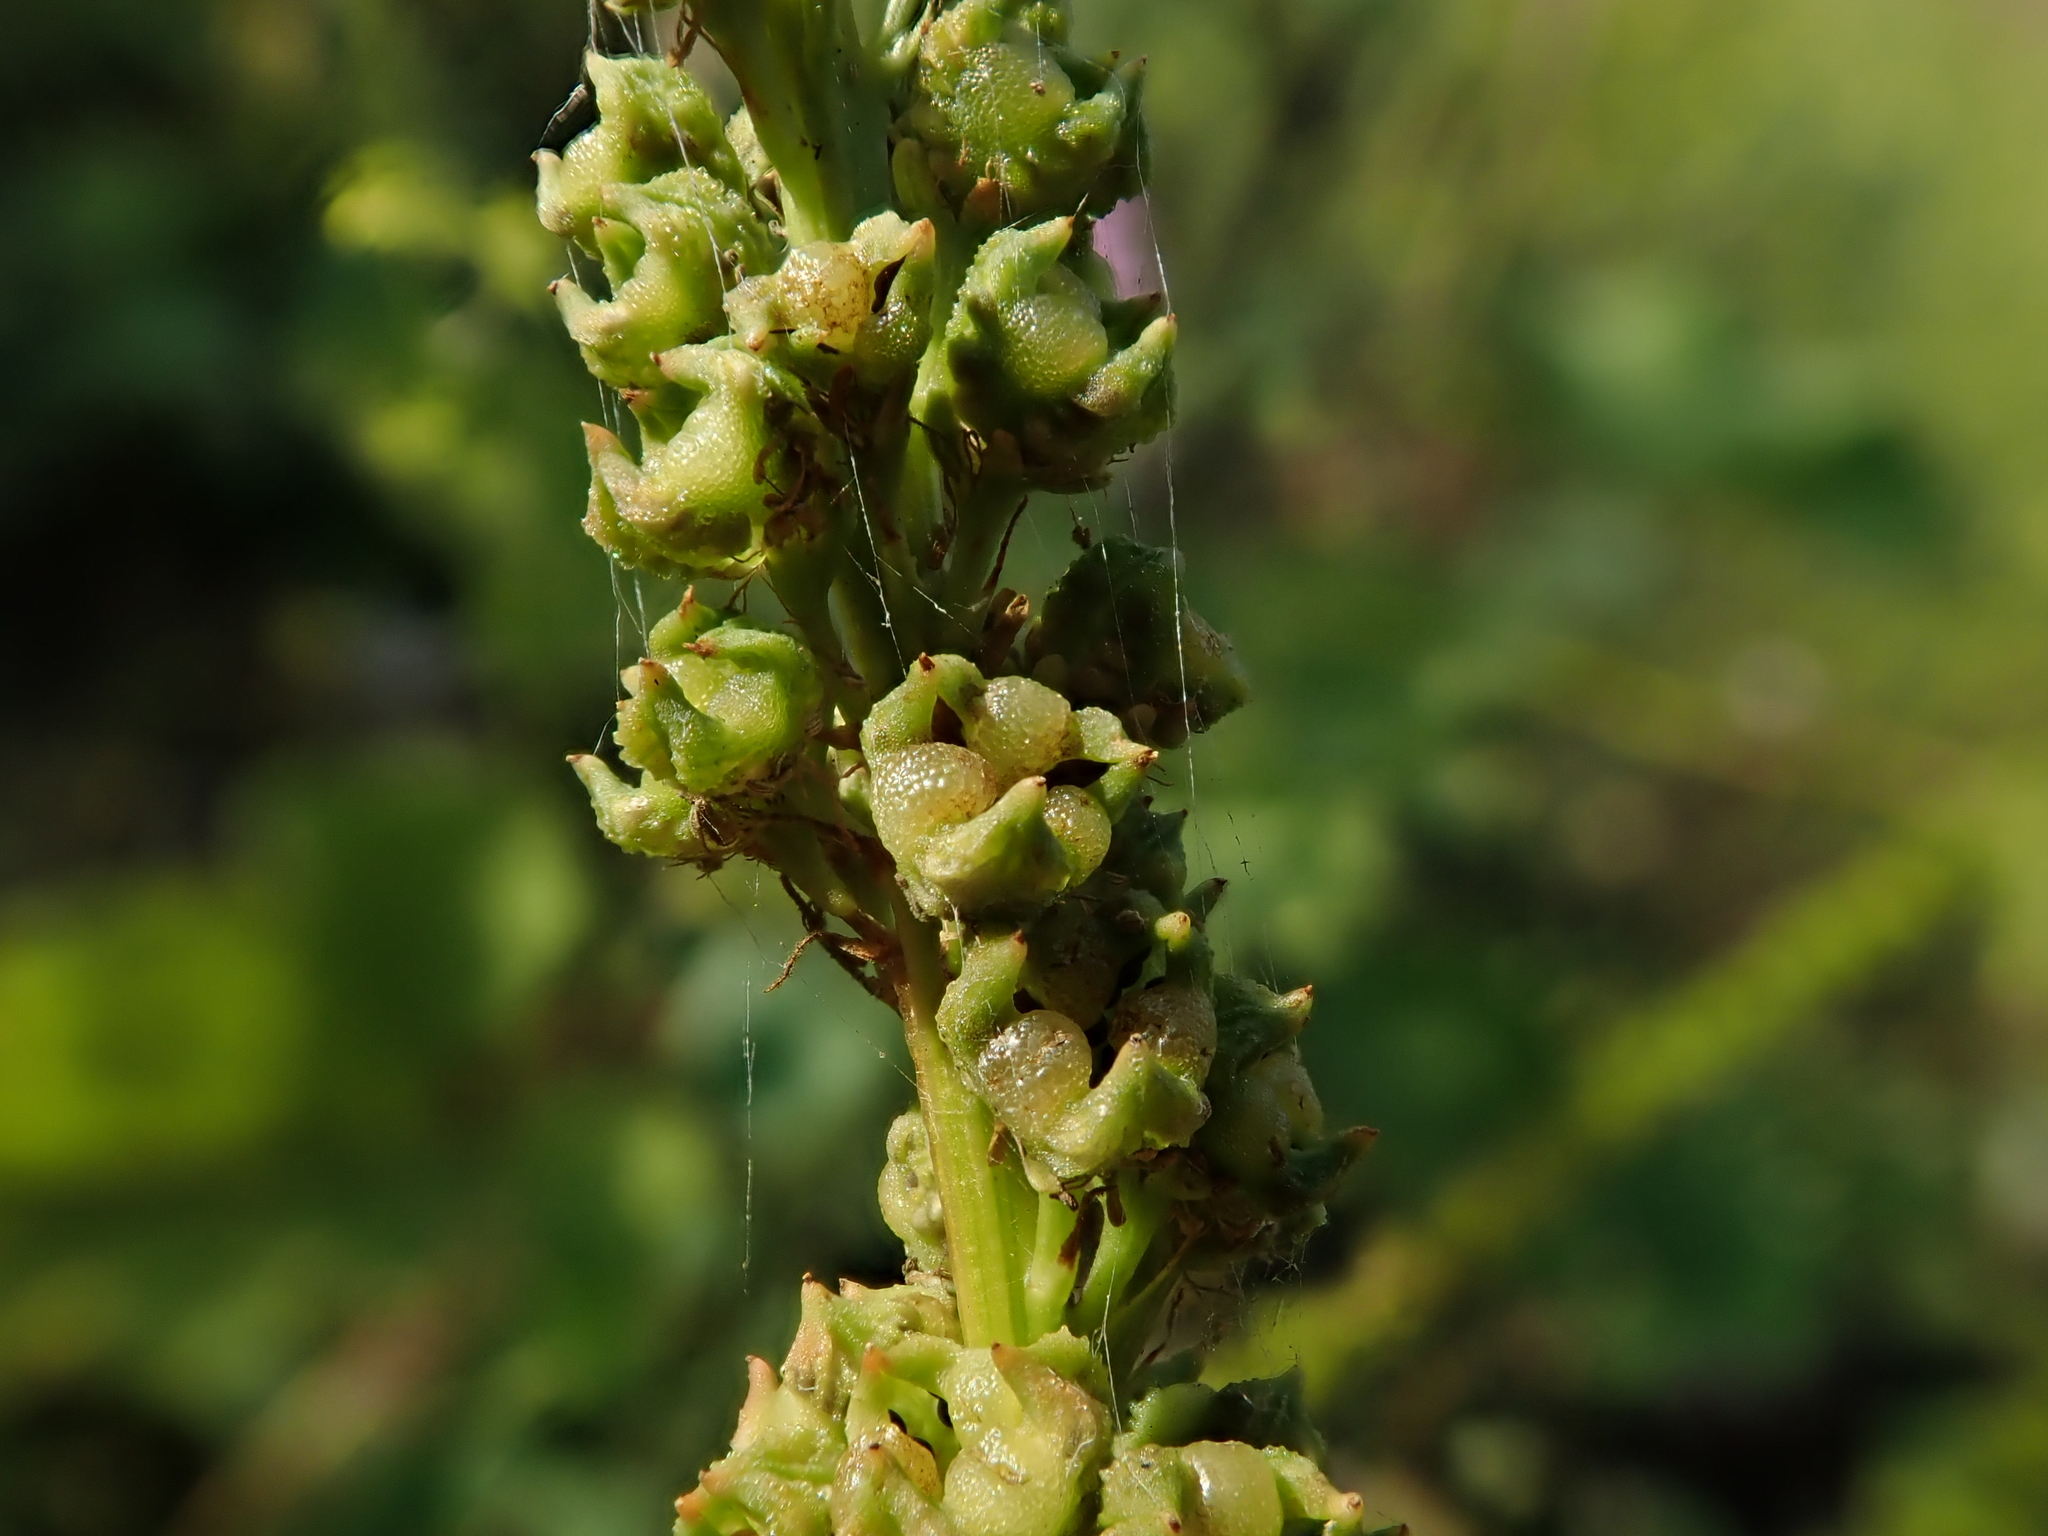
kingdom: Plantae
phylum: Tracheophyta
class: Magnoliopsida
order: Brassicales
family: Resedaceae
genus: Reseda
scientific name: Reseda luteola
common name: Weld
